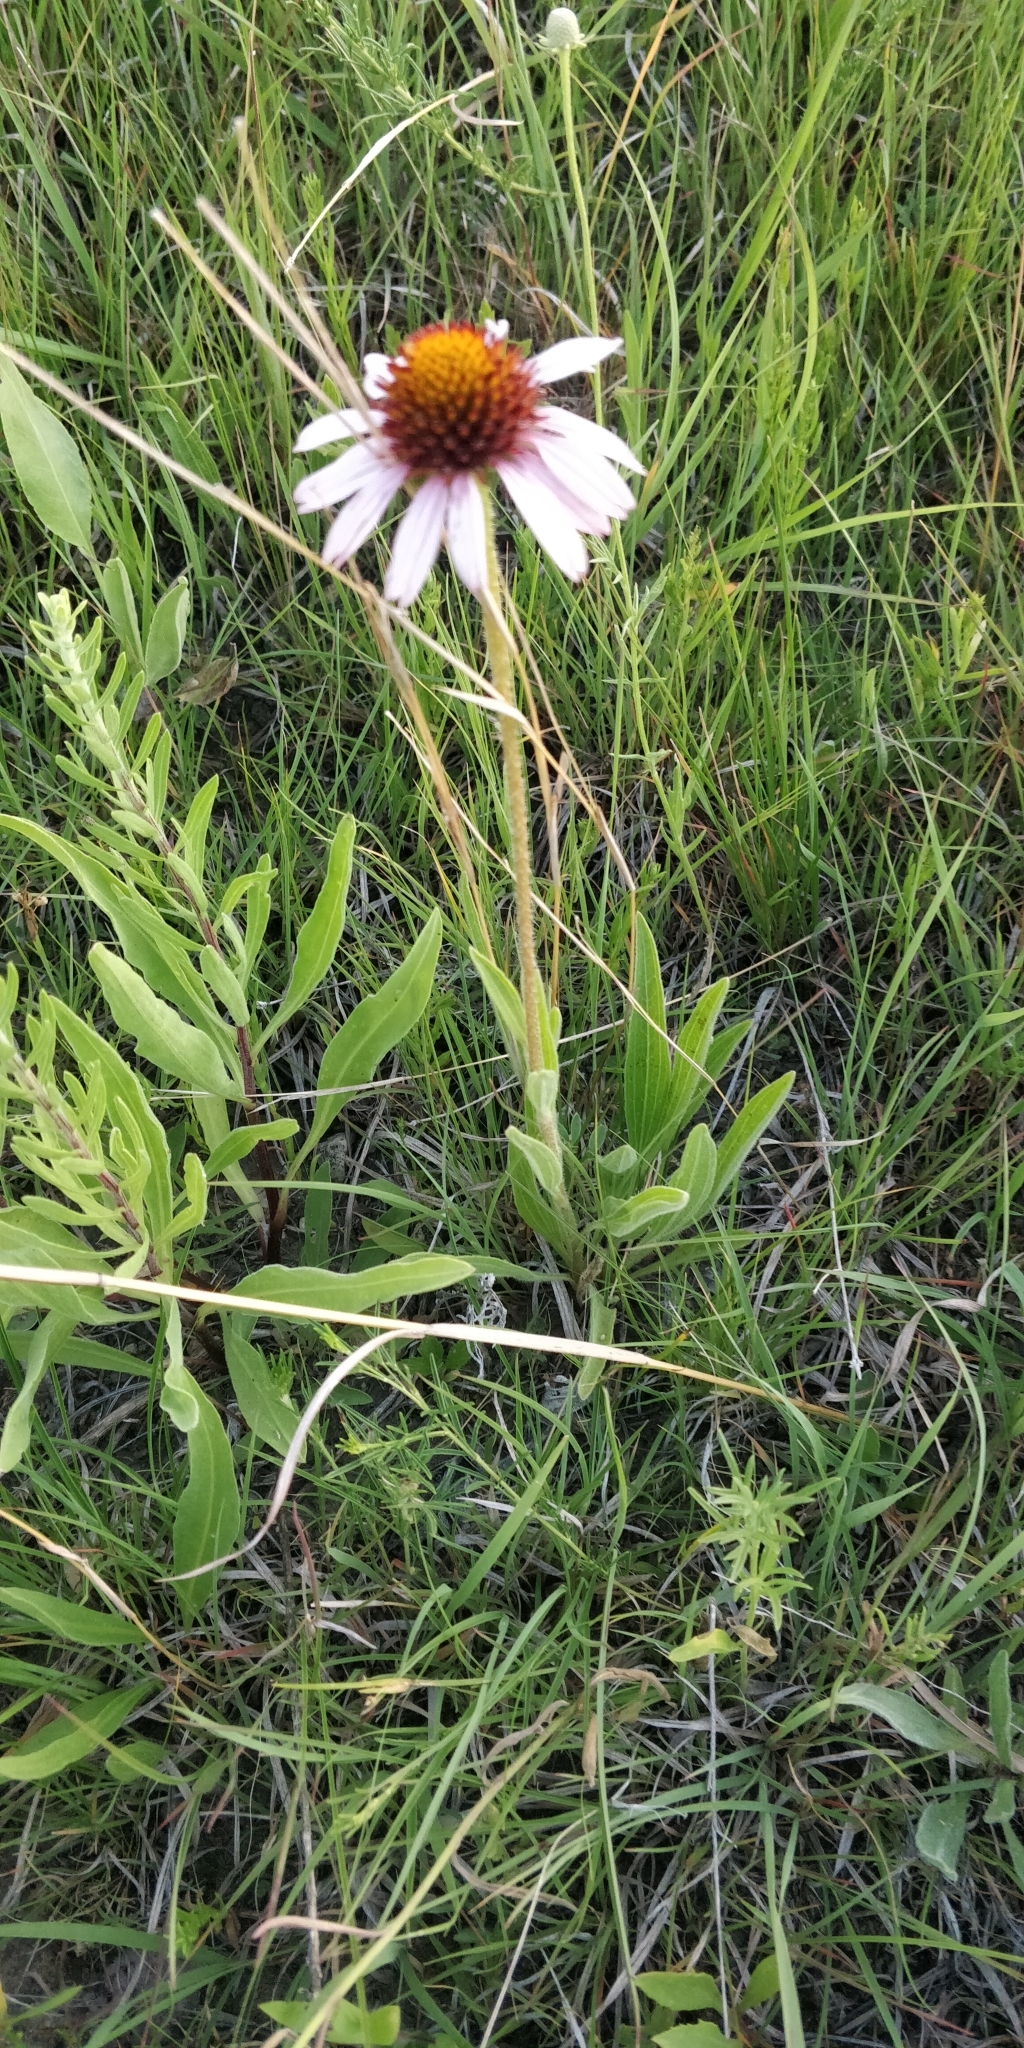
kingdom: Plantae
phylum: Tracheophyta
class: Magnoliopsida
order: Asterales
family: Asteraceae
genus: Echinacea
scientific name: Echinacea angustifolia
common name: Black-sampson echinacea
